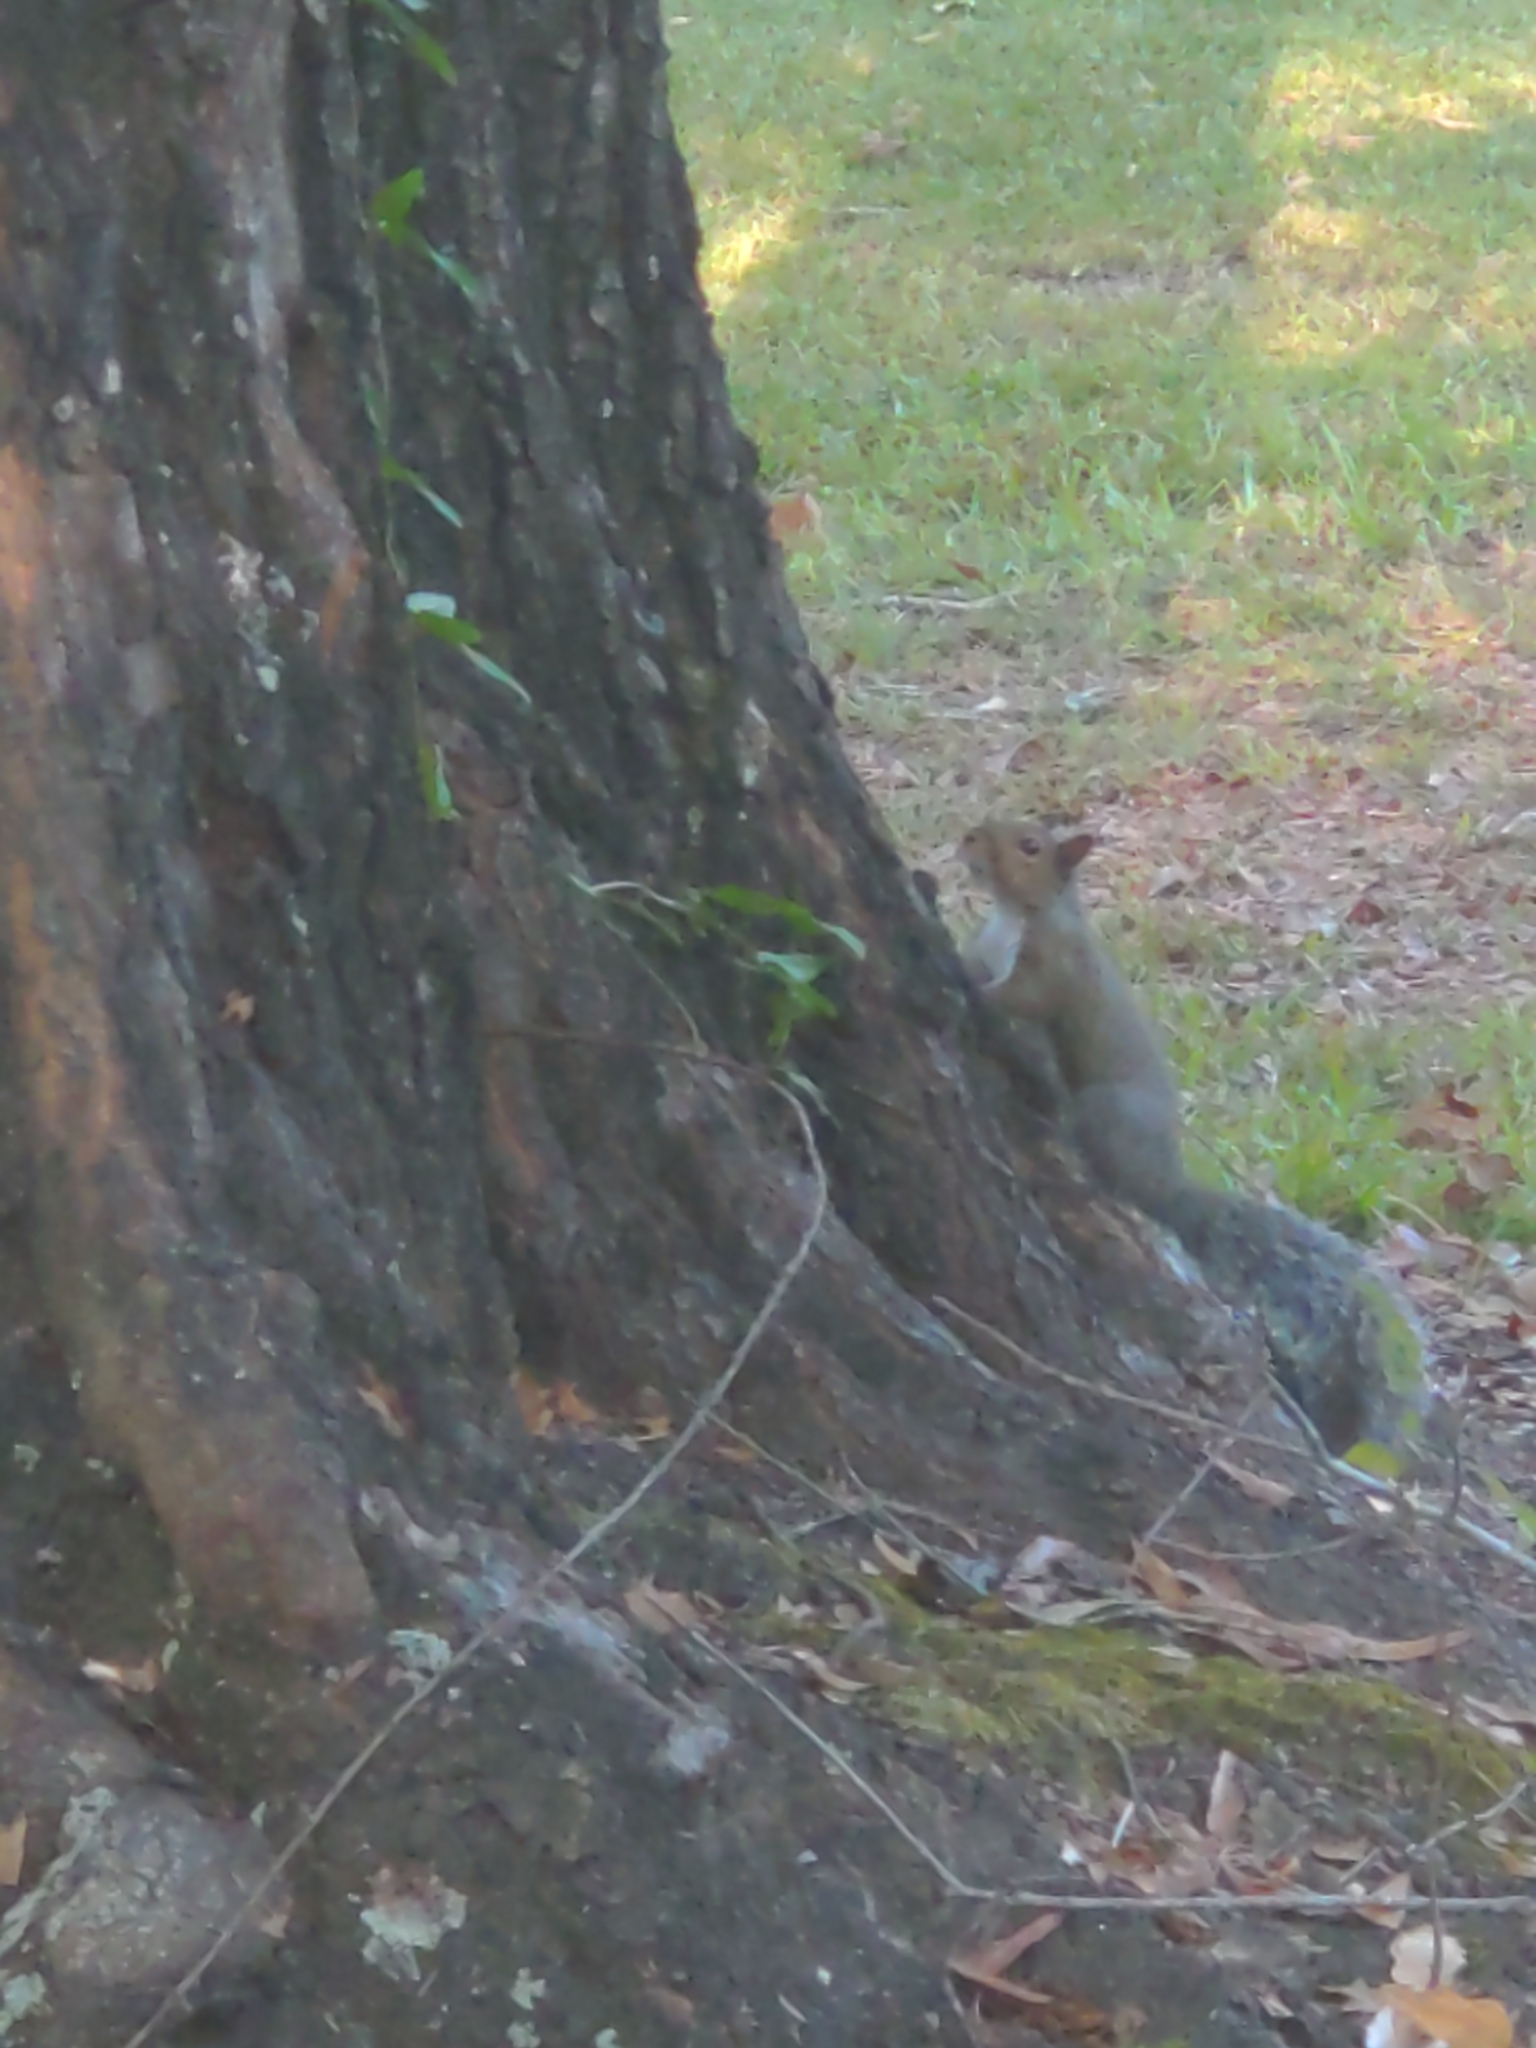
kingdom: Animalia
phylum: Chordata
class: Mammalia
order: Rodentia
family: Sciuridae
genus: Sciurus
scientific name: Sciurus carolinensis
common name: Eastern gray squirrel
